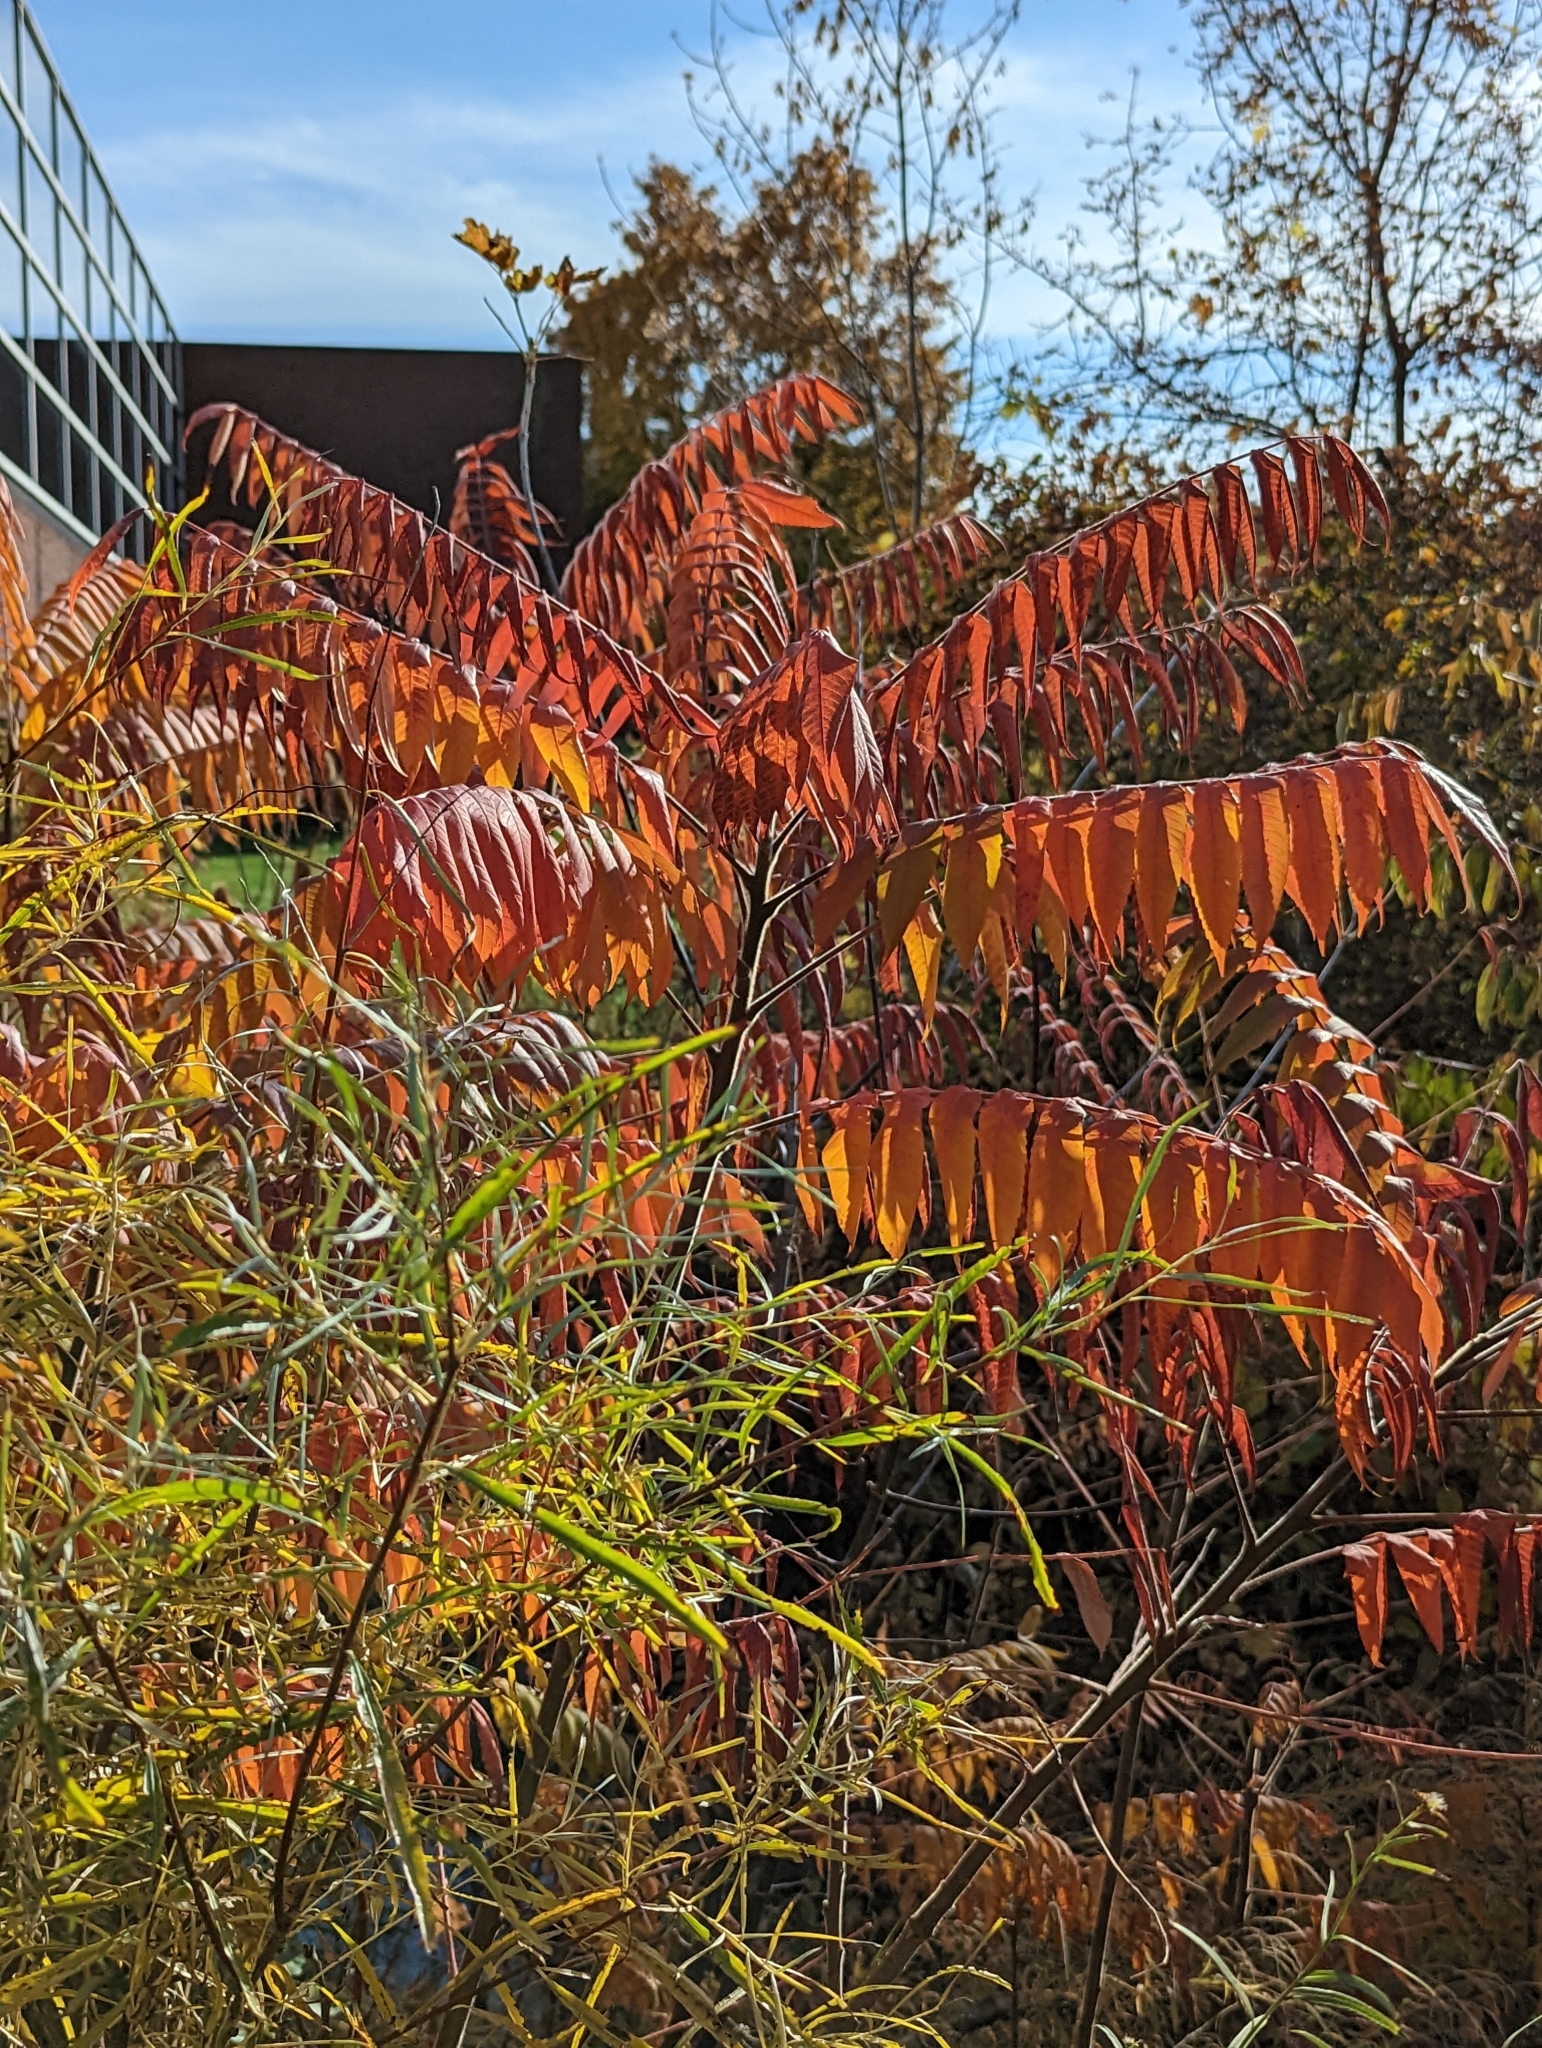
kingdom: Plantae
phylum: Tracheophyta
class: Magnoliopsida
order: Sapindales
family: Anacardiaceae
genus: Rhus
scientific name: Rhus typhina
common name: Staghorn sumac
